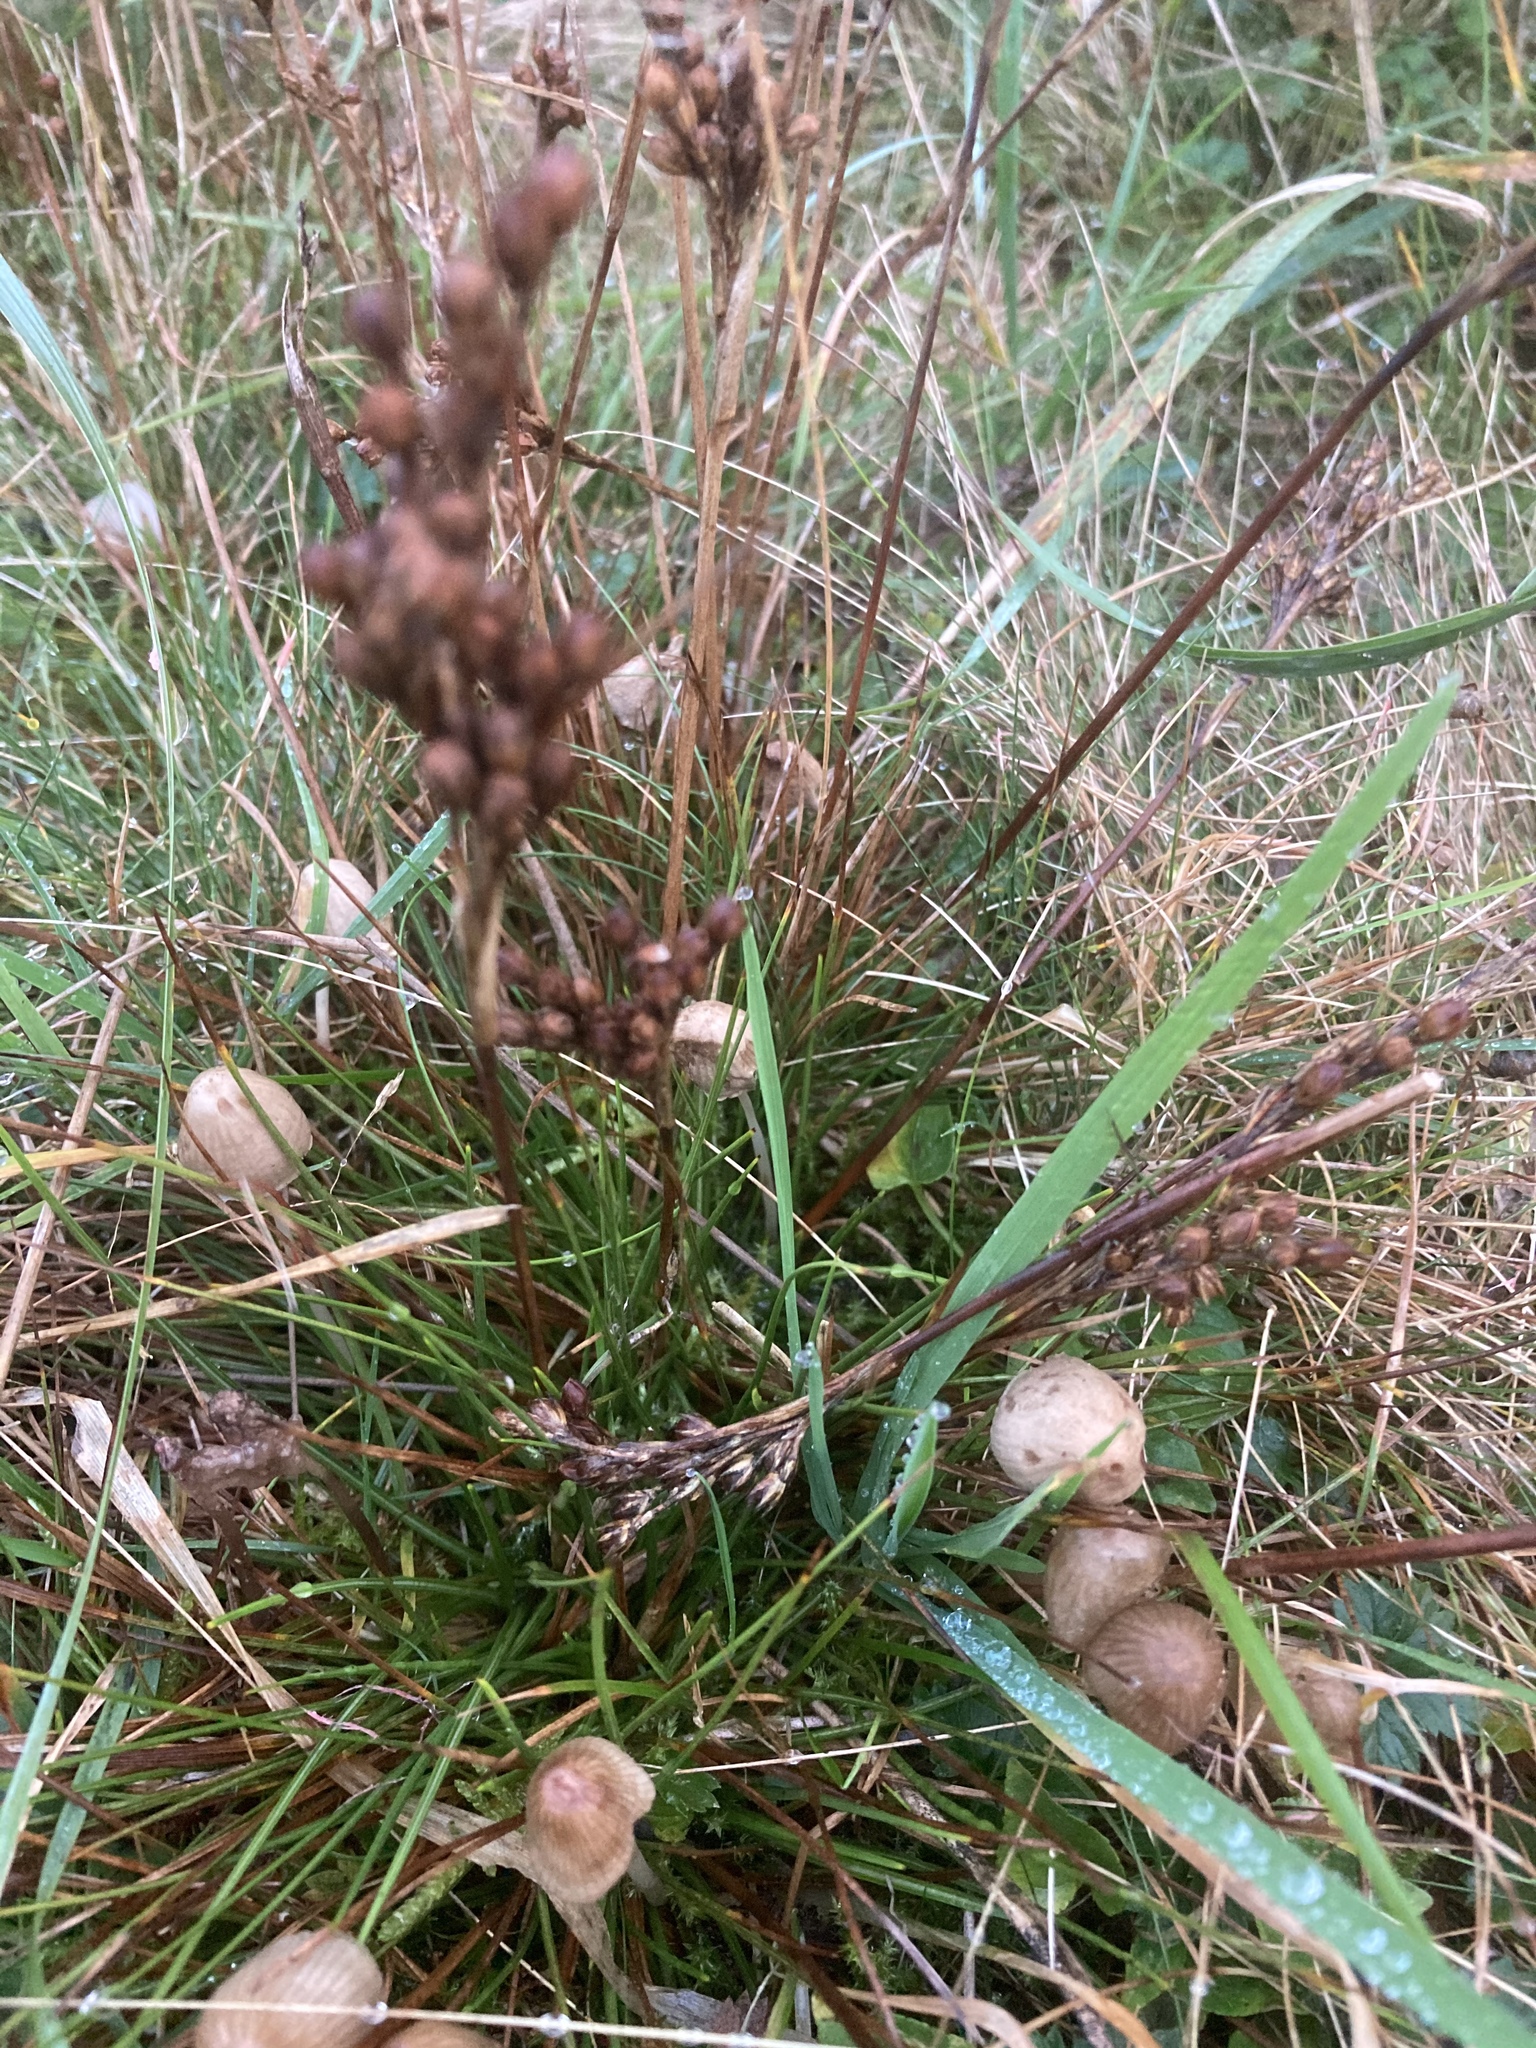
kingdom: Plantae
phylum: Tracheophyta
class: Liliopsida
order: Poales
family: Juncaceae
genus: Juncus
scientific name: Juncus squarrosus
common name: Heath rush
